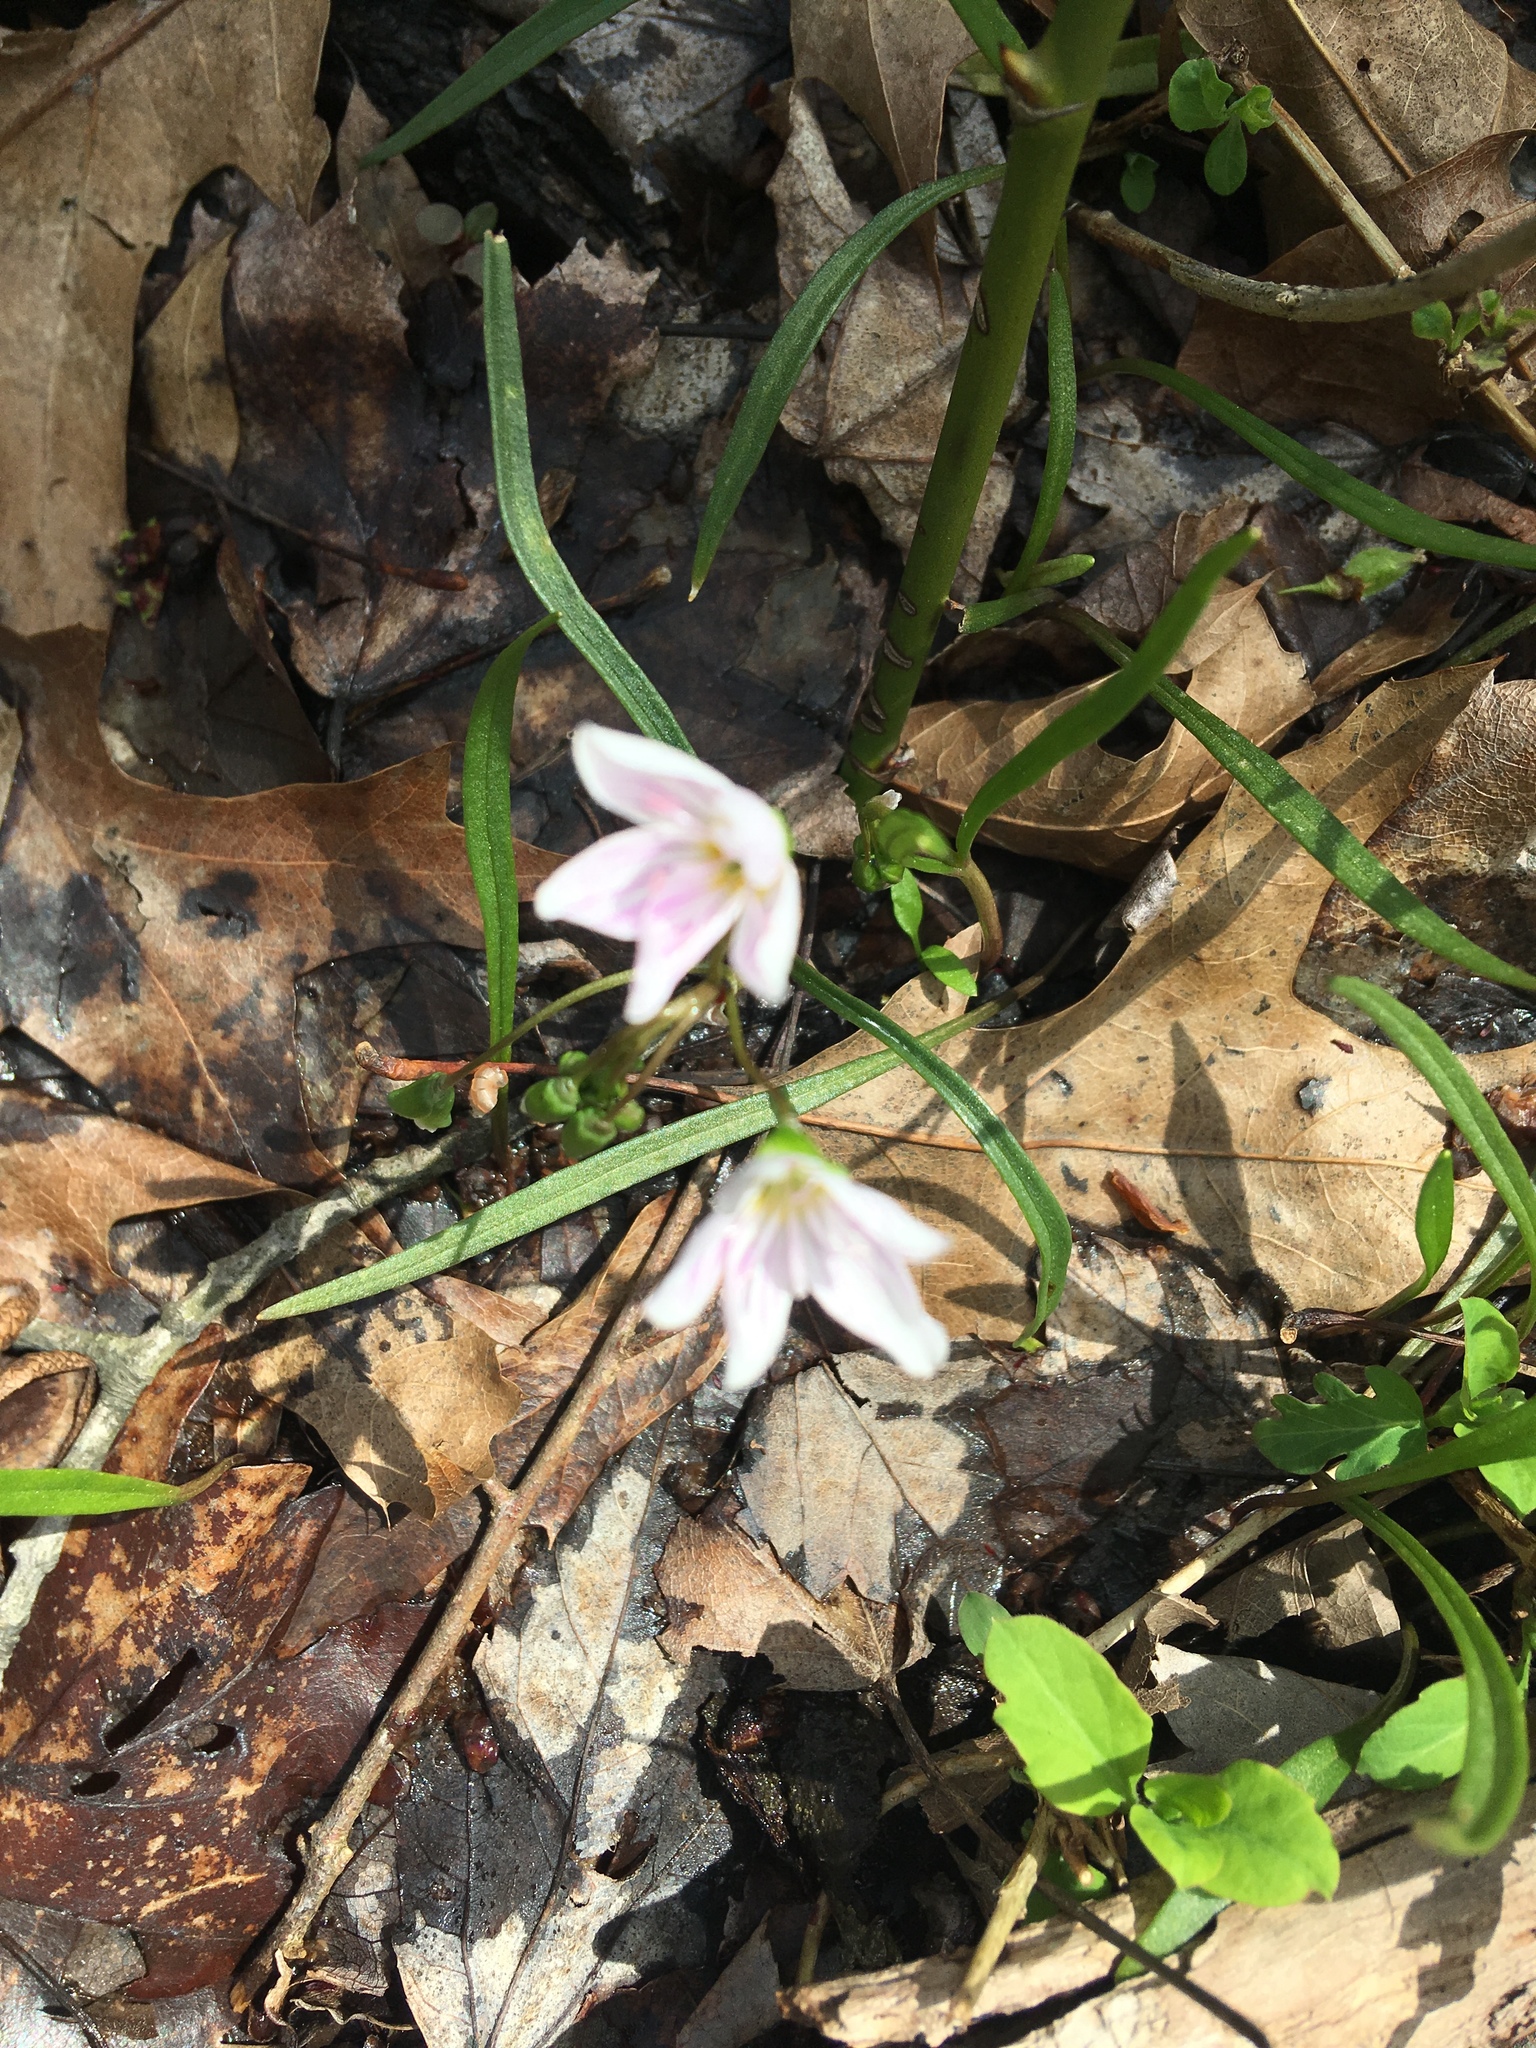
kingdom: Plantae
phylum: Tracheophyta
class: Magnoliopsida
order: Caryophyllales
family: Montiaceae
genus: Claytonia
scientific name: Claytonia virginica
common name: Virginia springbeauty
